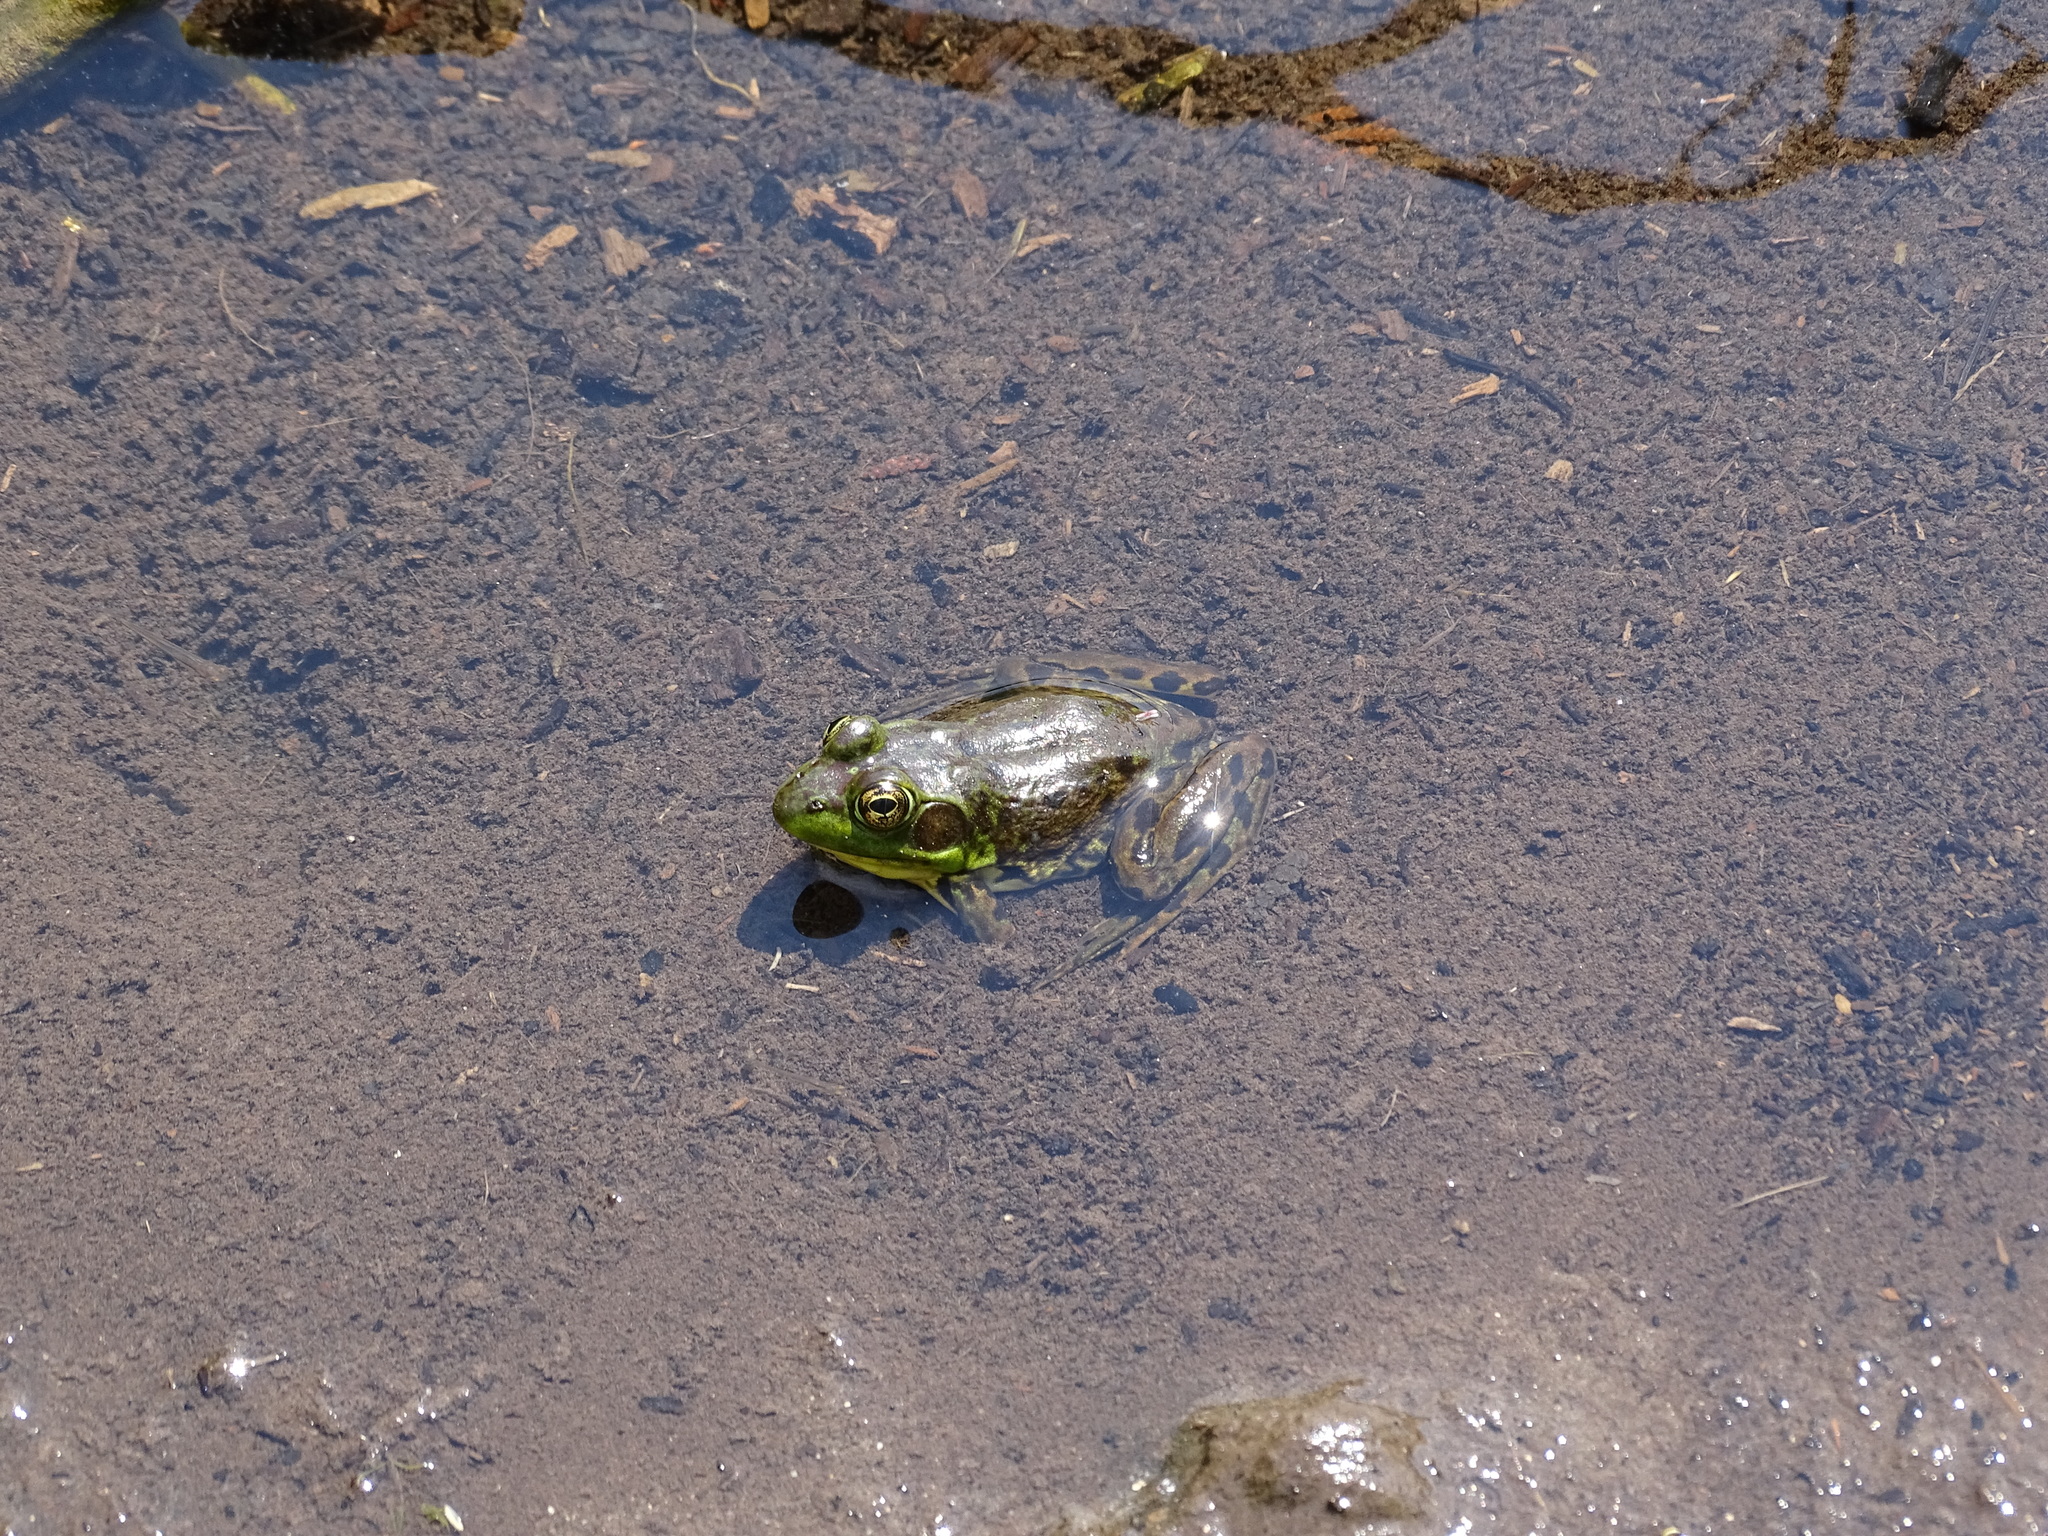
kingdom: Animalia
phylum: Chordata
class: Amphibia
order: Anura
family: Ranidae
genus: Lithobates
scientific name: Lithobates septentrionalis
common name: Mink frog
